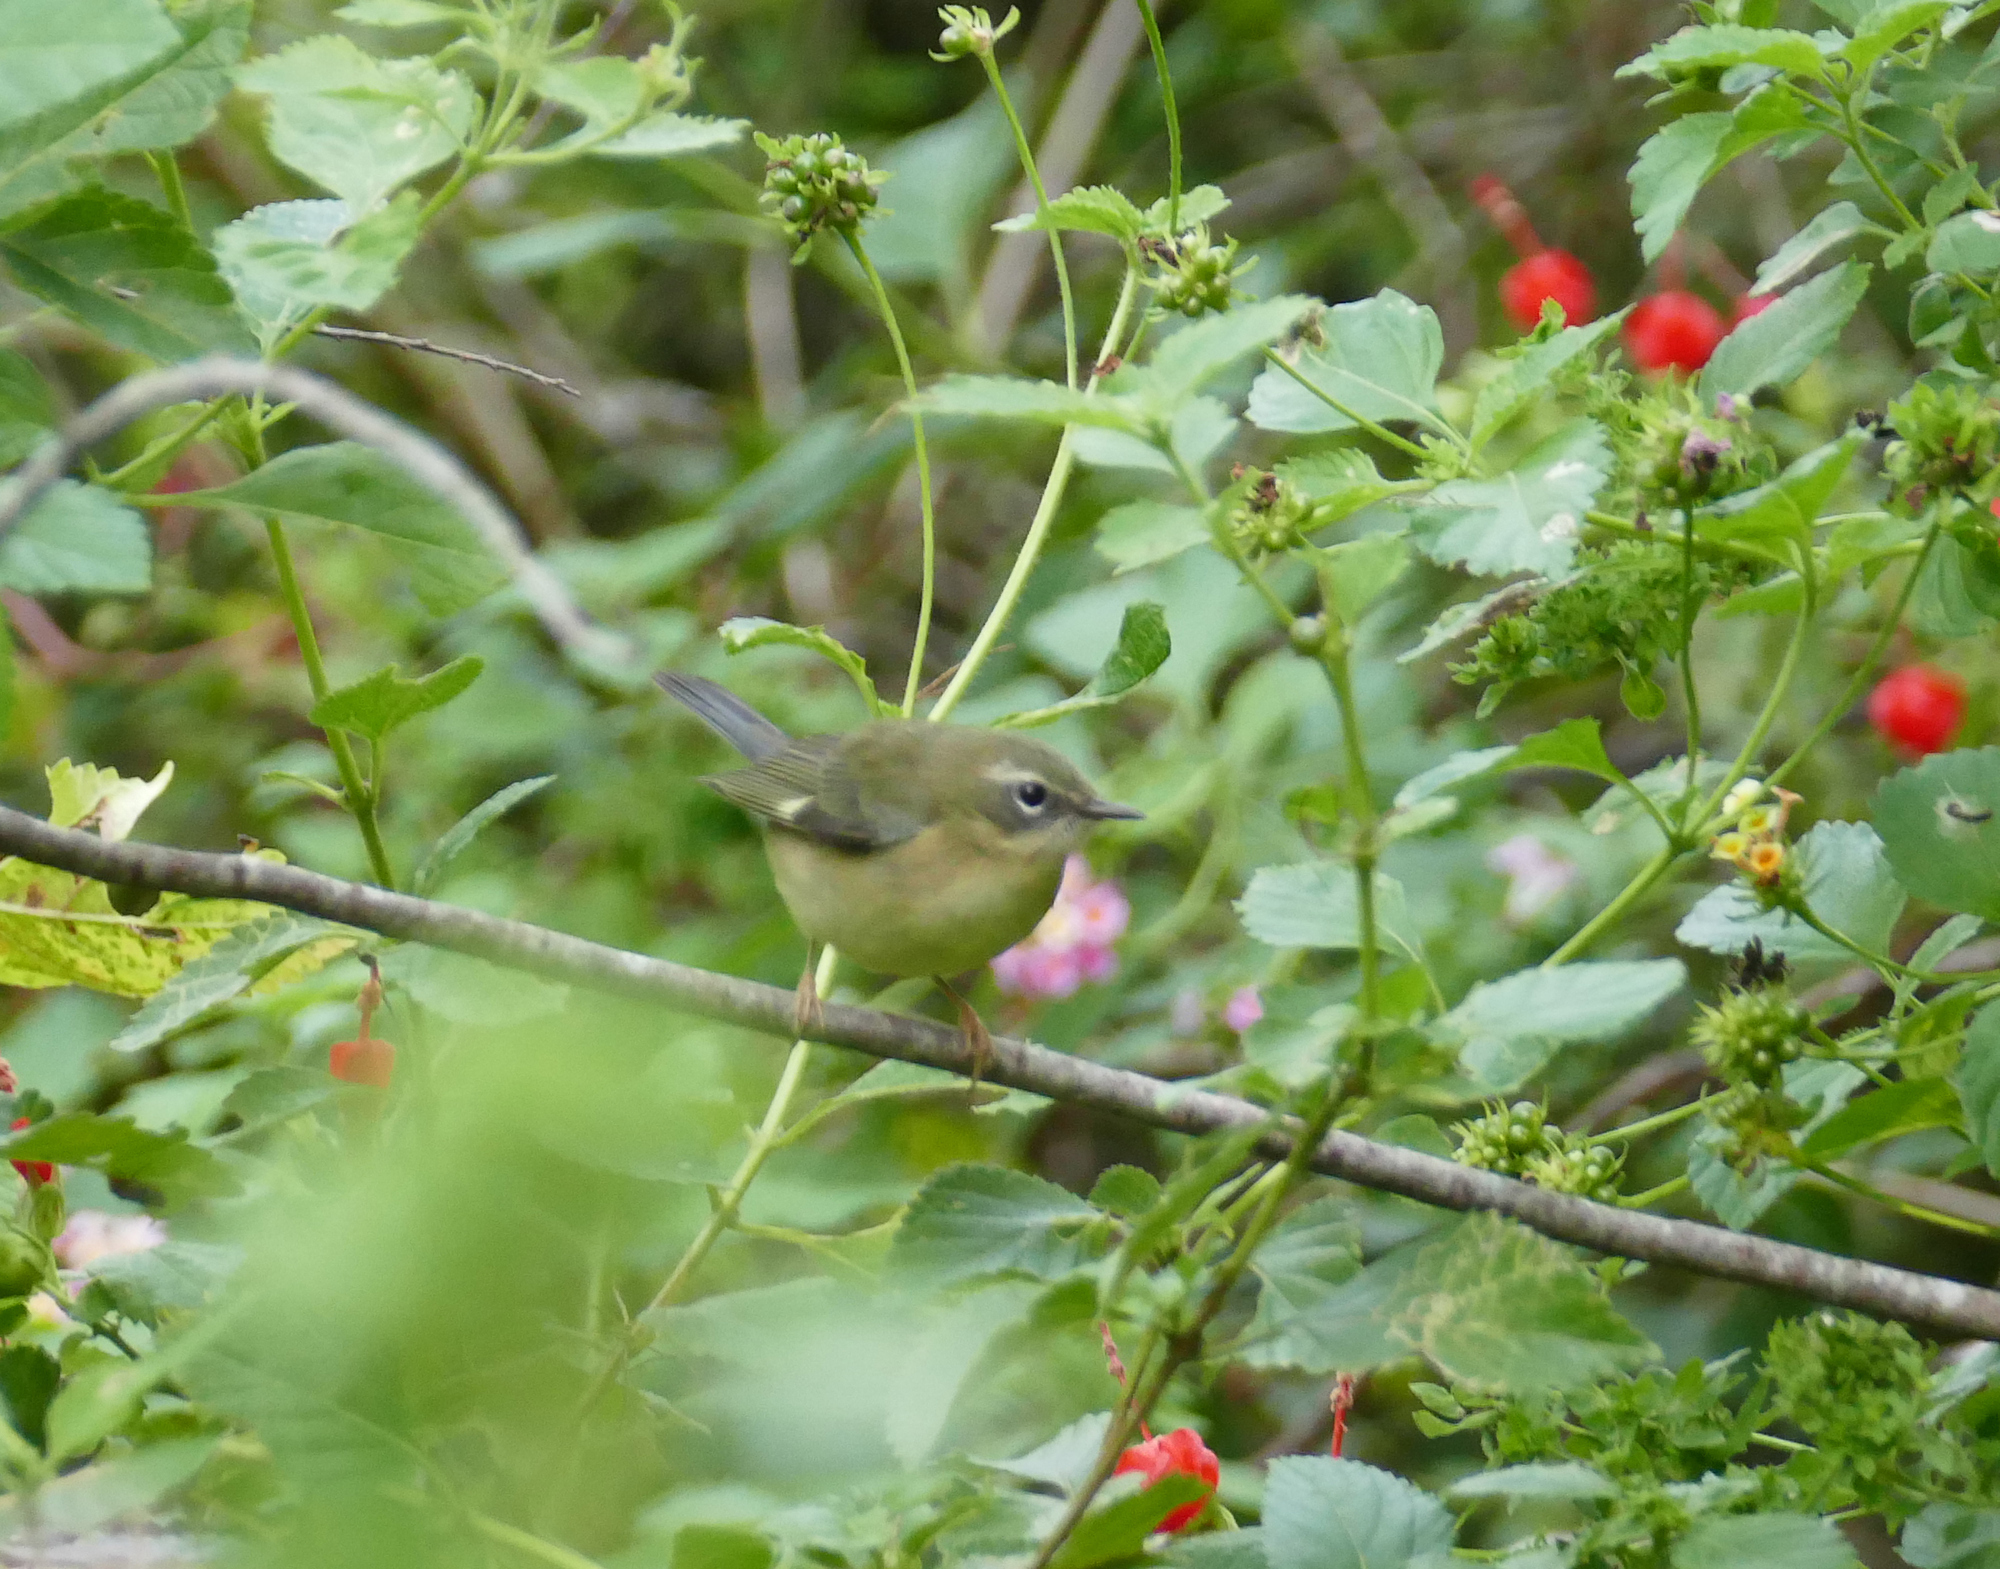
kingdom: Animalia
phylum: Chordata
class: Aves
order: Passeriformes
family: Parulidae
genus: Setophaga
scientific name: Setophaga caerulescens
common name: Black-throated blue warbler
